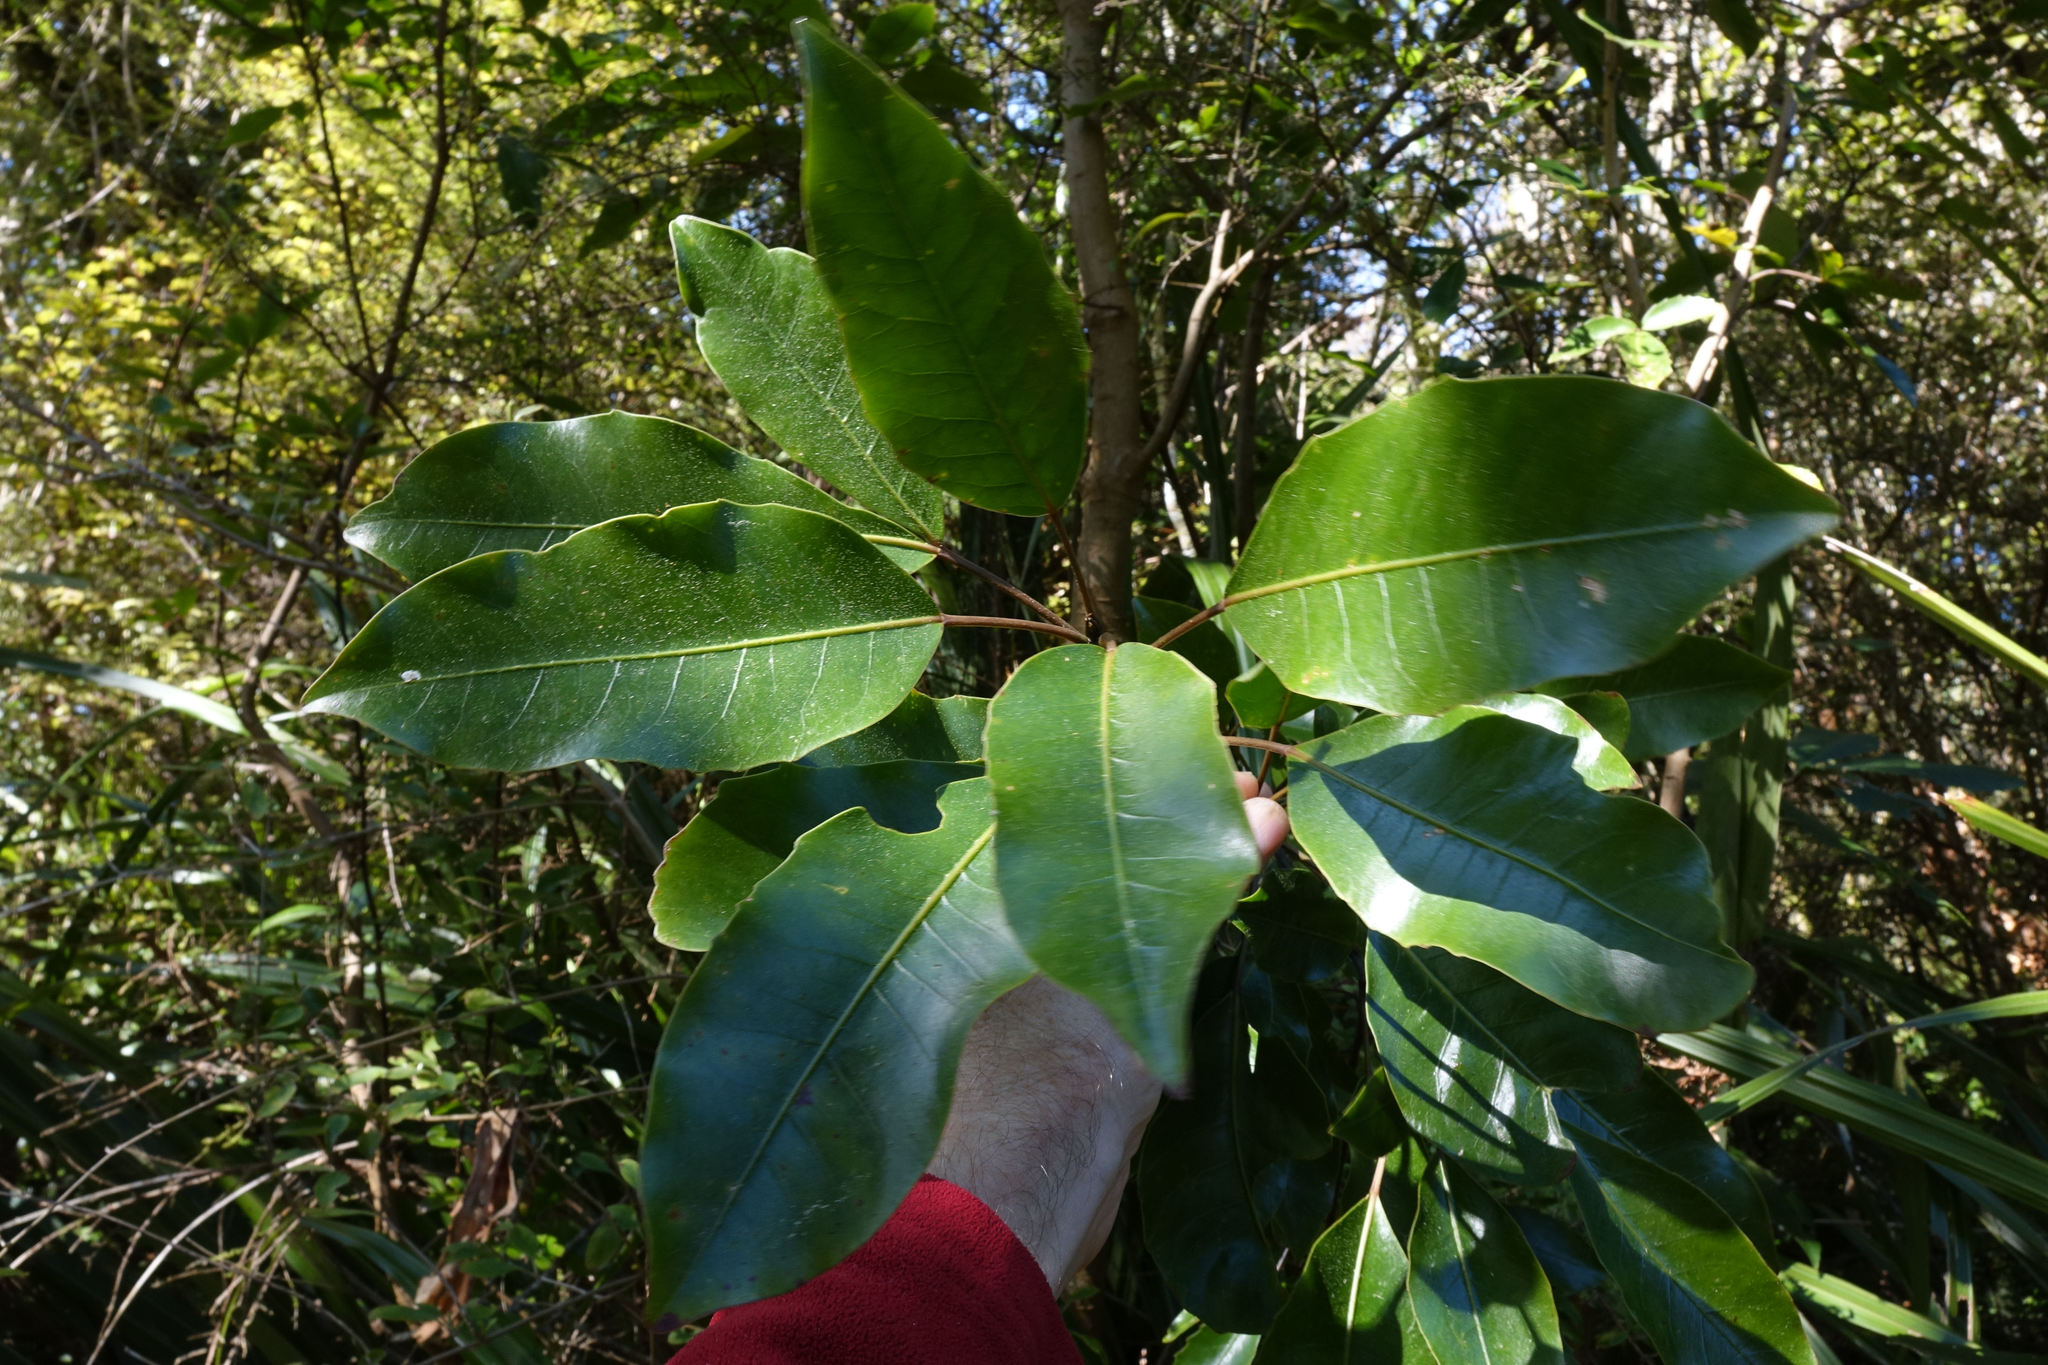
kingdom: Plantae
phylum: Tracheophyta
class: Magnoliopsida
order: Apiales
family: Araliaceae
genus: Raukaua
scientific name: Raukaua edgerleyi
